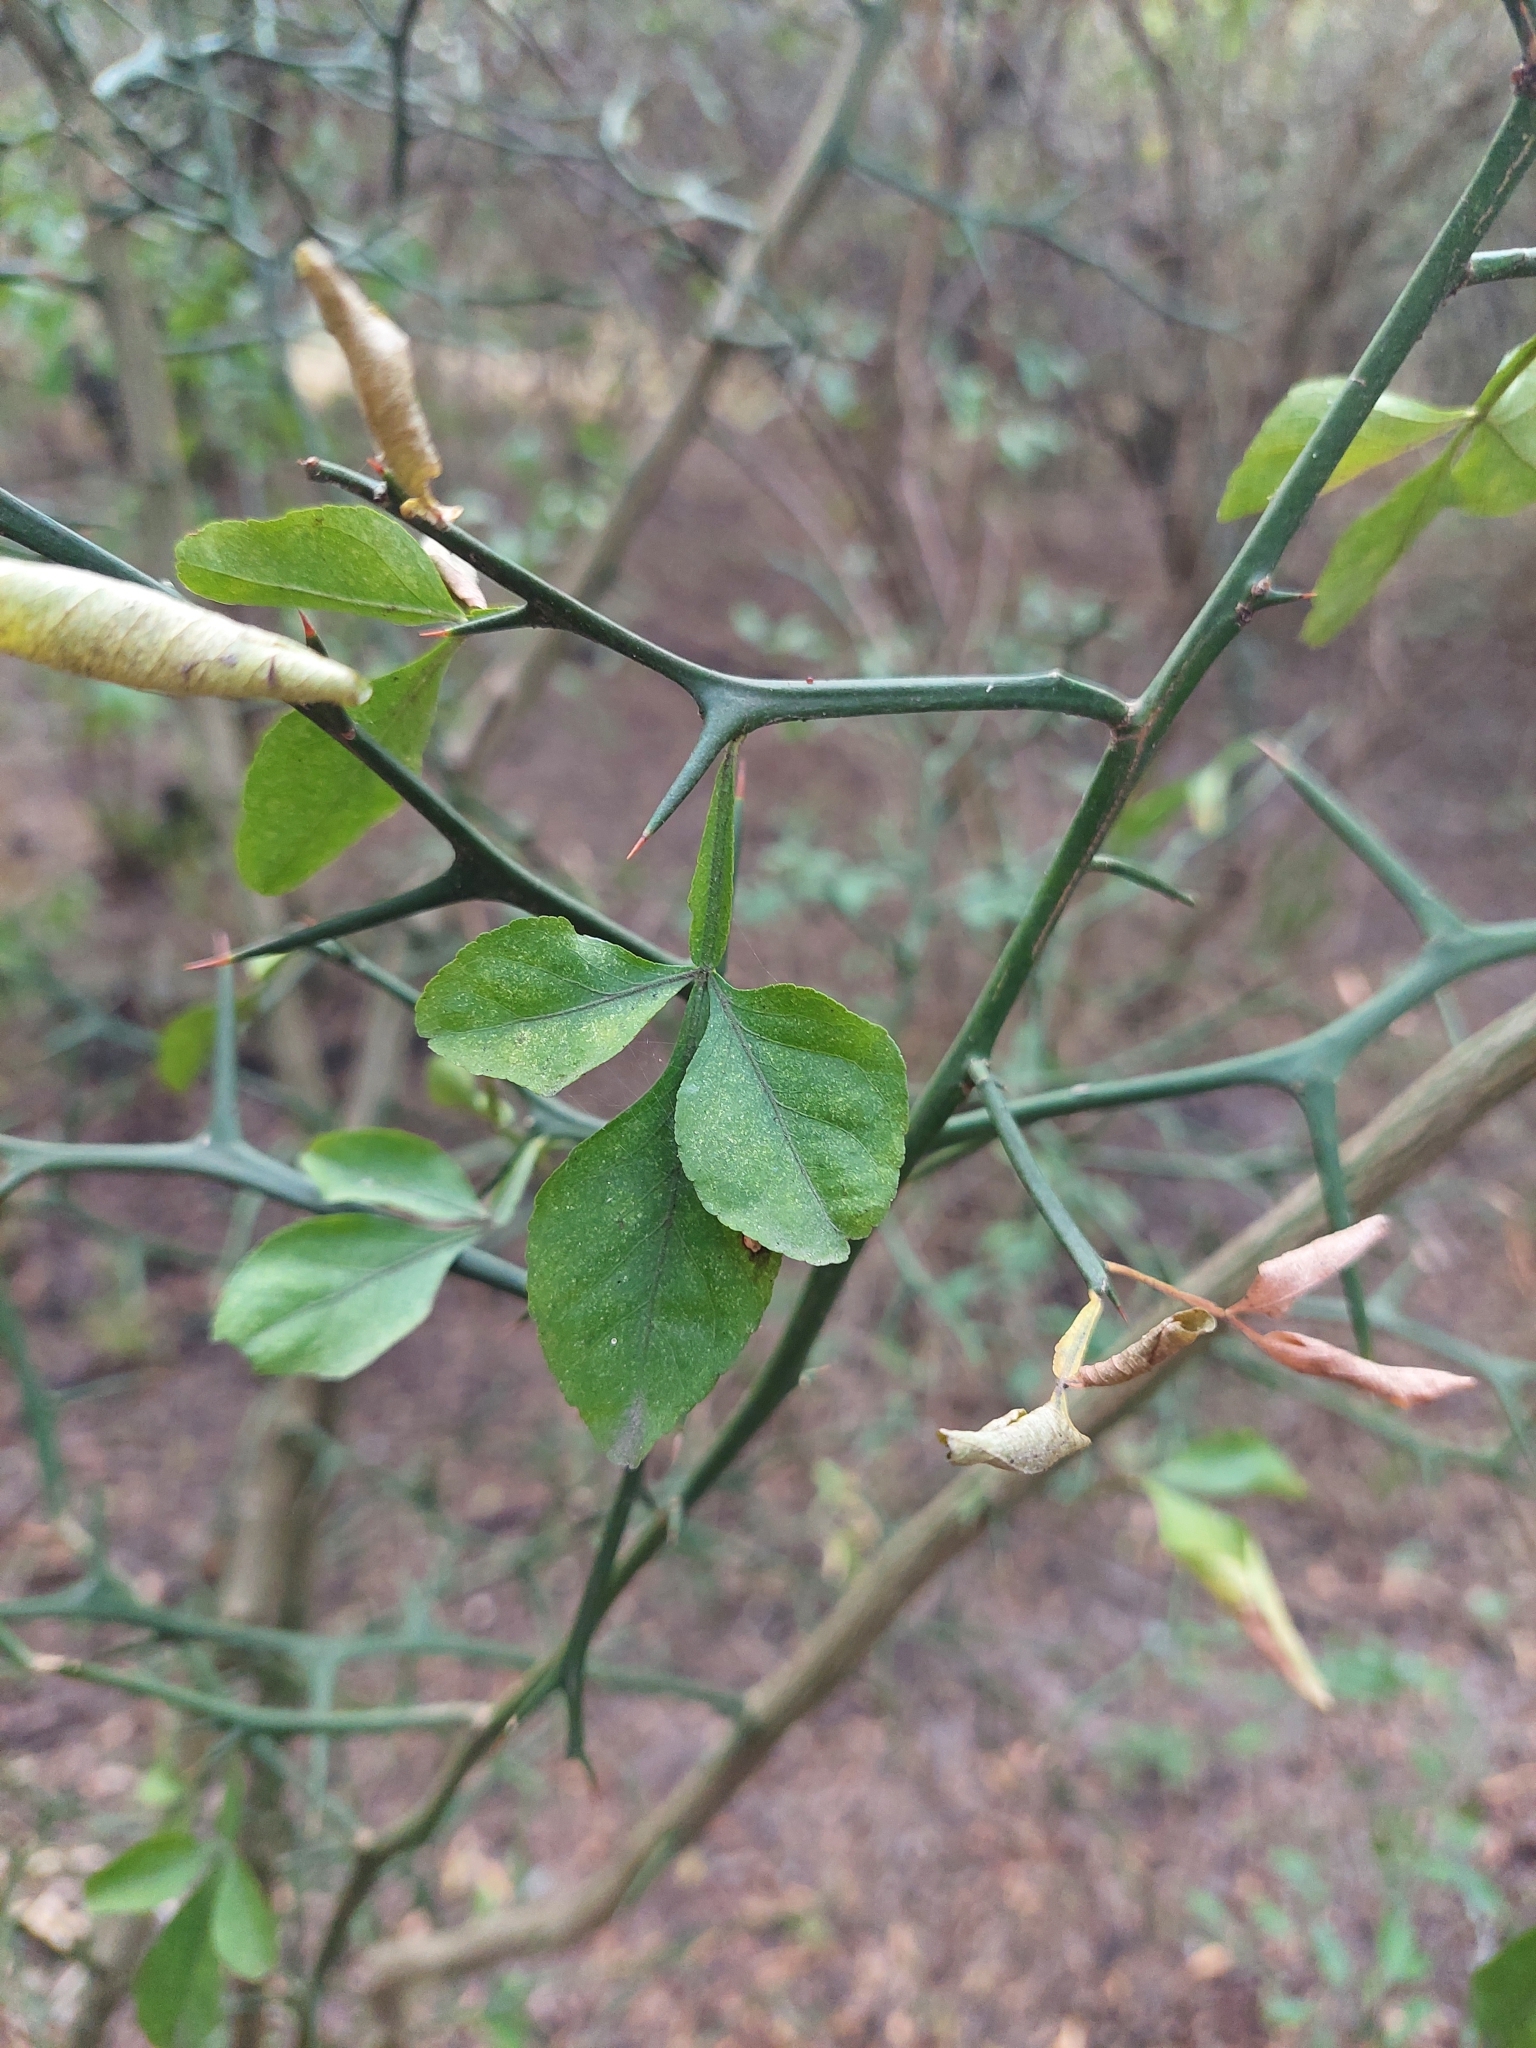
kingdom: Plantae
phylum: Tracheophyta
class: Magnoliopsida
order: Sapindales
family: Rutaceae
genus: Citrus
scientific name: Citrus trifoliata
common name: Japanese bitter-orange
